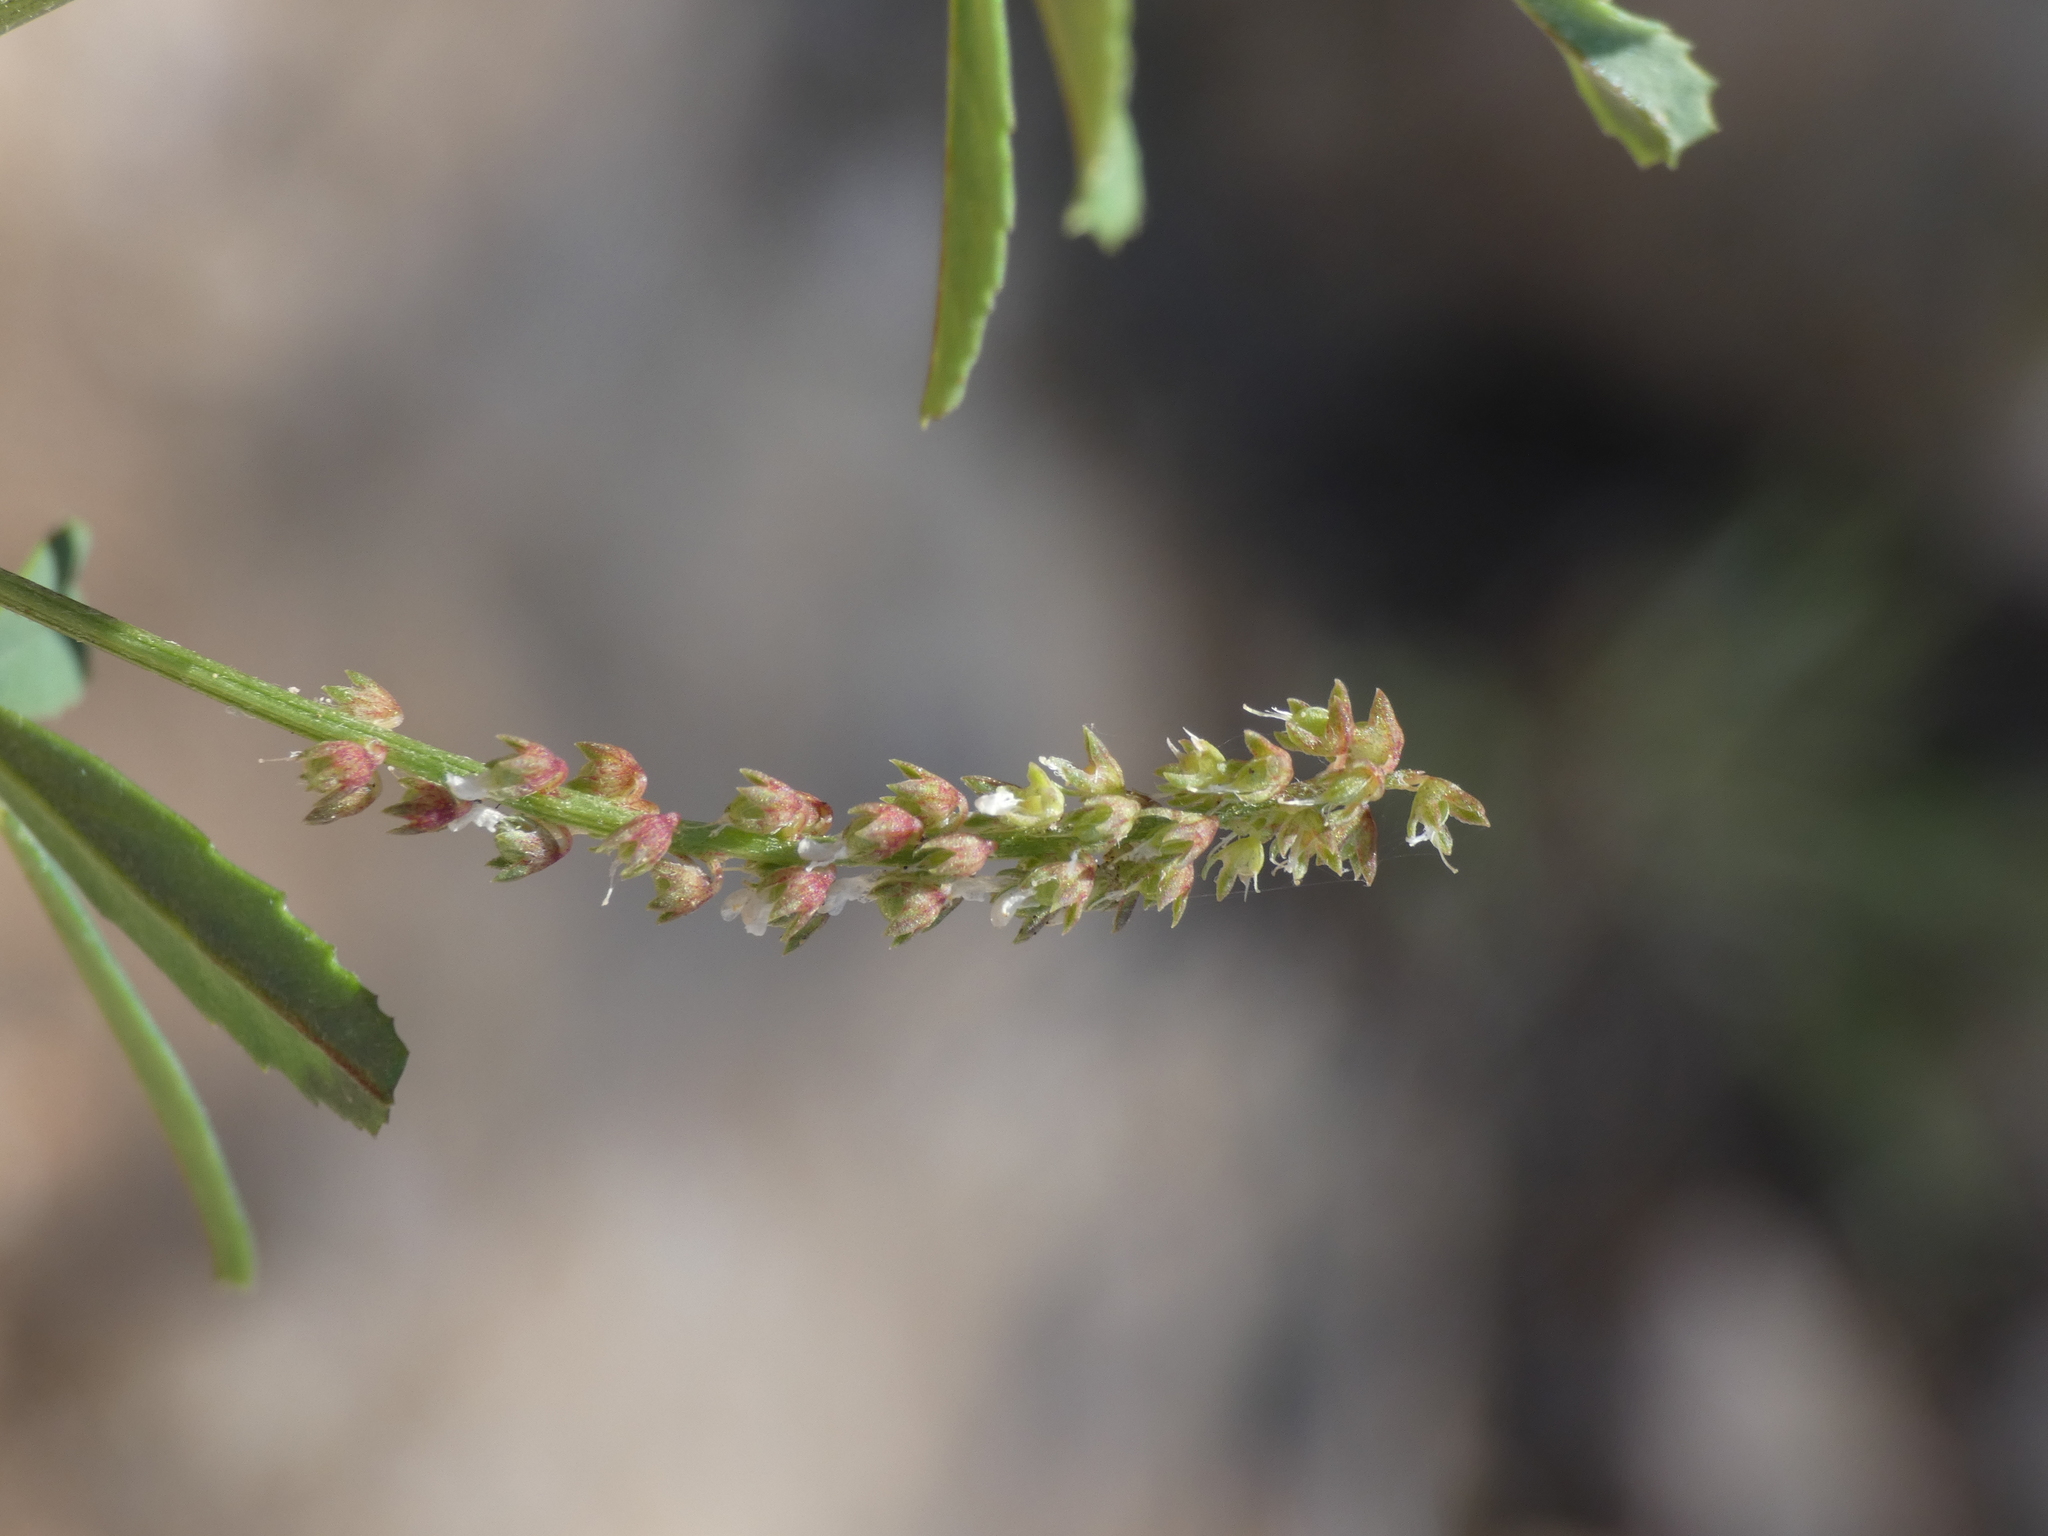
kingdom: Plantae
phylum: Tracheophyta
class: Magnoliopsida
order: Fabales
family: Fabaceae
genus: Melilotus
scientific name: Melilotus indicus
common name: Small melilot
